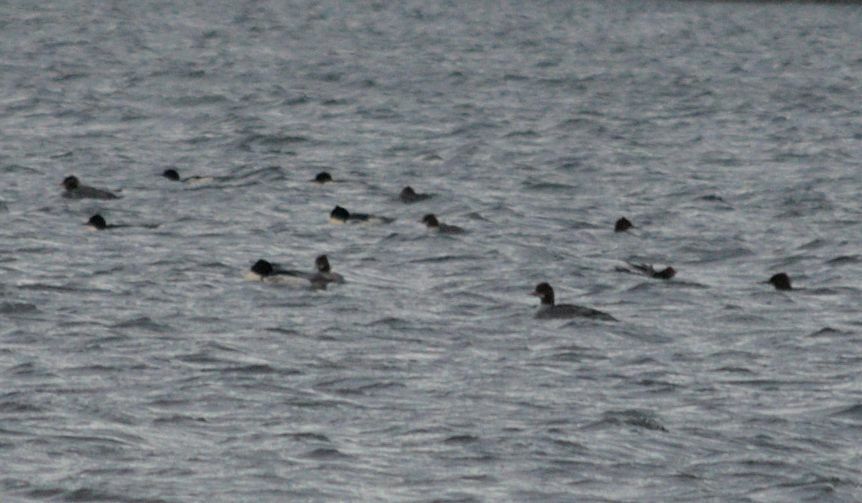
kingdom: Animalia
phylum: Chordata
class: Aves
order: Anseriformes
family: Anatidae
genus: Mergus
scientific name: Mergus merganser
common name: Common merganser
